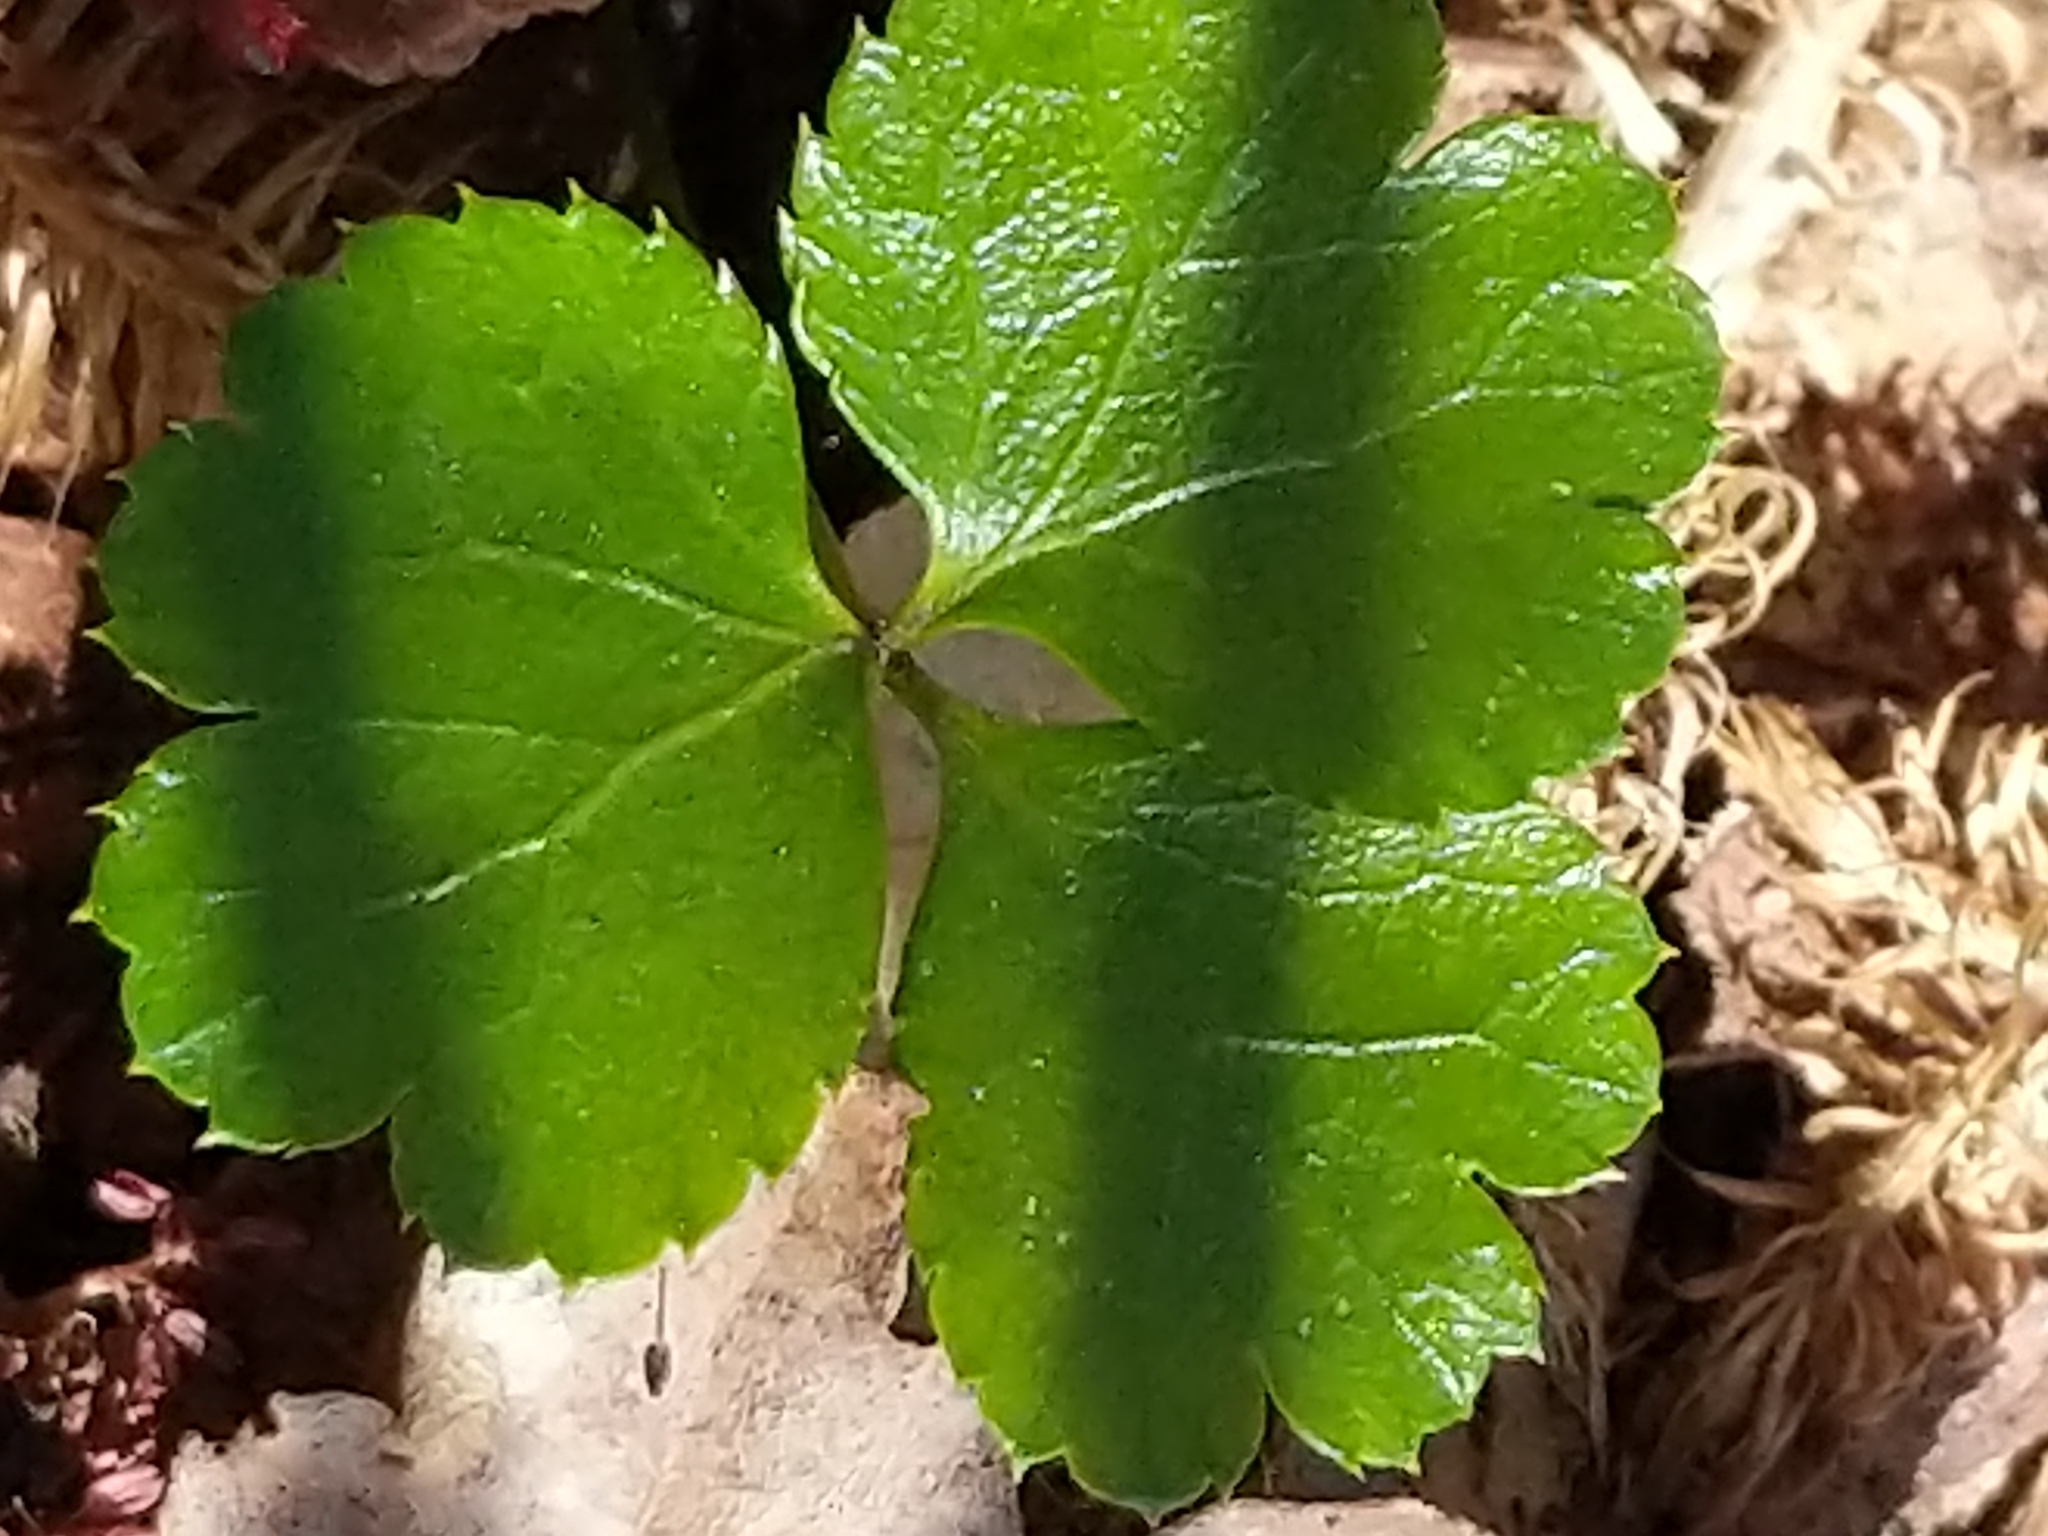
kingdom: Plantae
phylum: Tracheophyta
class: Magnoliopsida
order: Ranunculales
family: Ranunculaceae
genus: Coptis
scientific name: Coptis trifolia
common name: Canker-root
